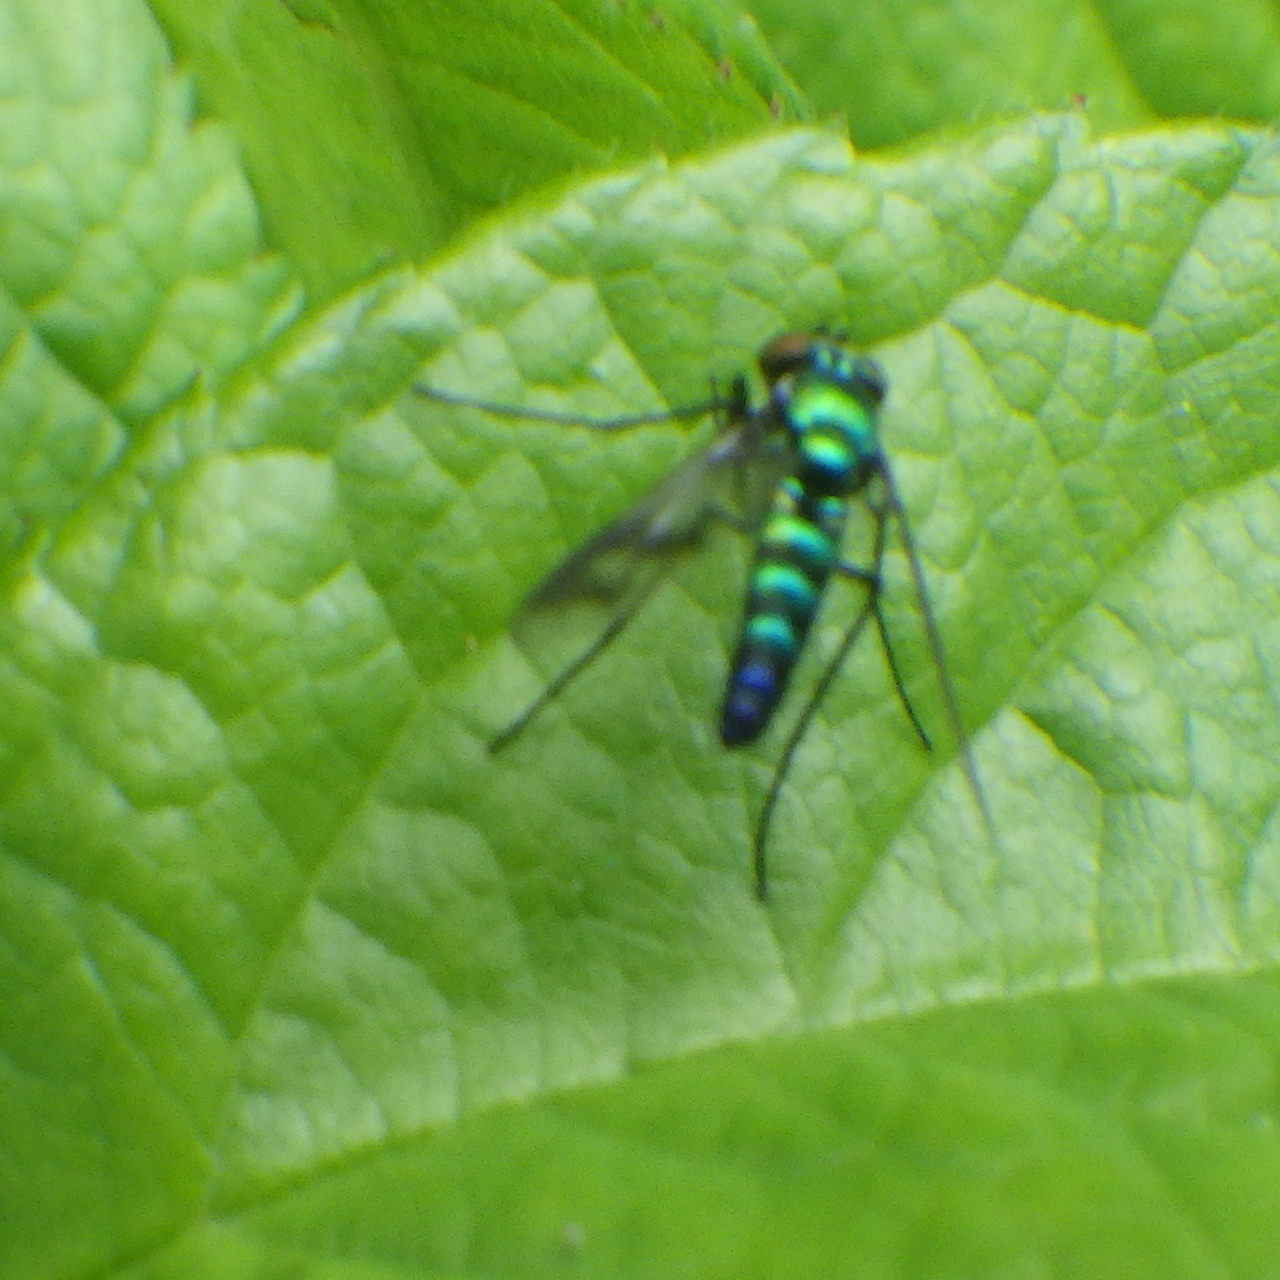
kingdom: Animalia
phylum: Arthropoda
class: Insecta
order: Diptera
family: Dolichopodidae
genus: Condylostylus
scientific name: Condylostylus patibulatus
